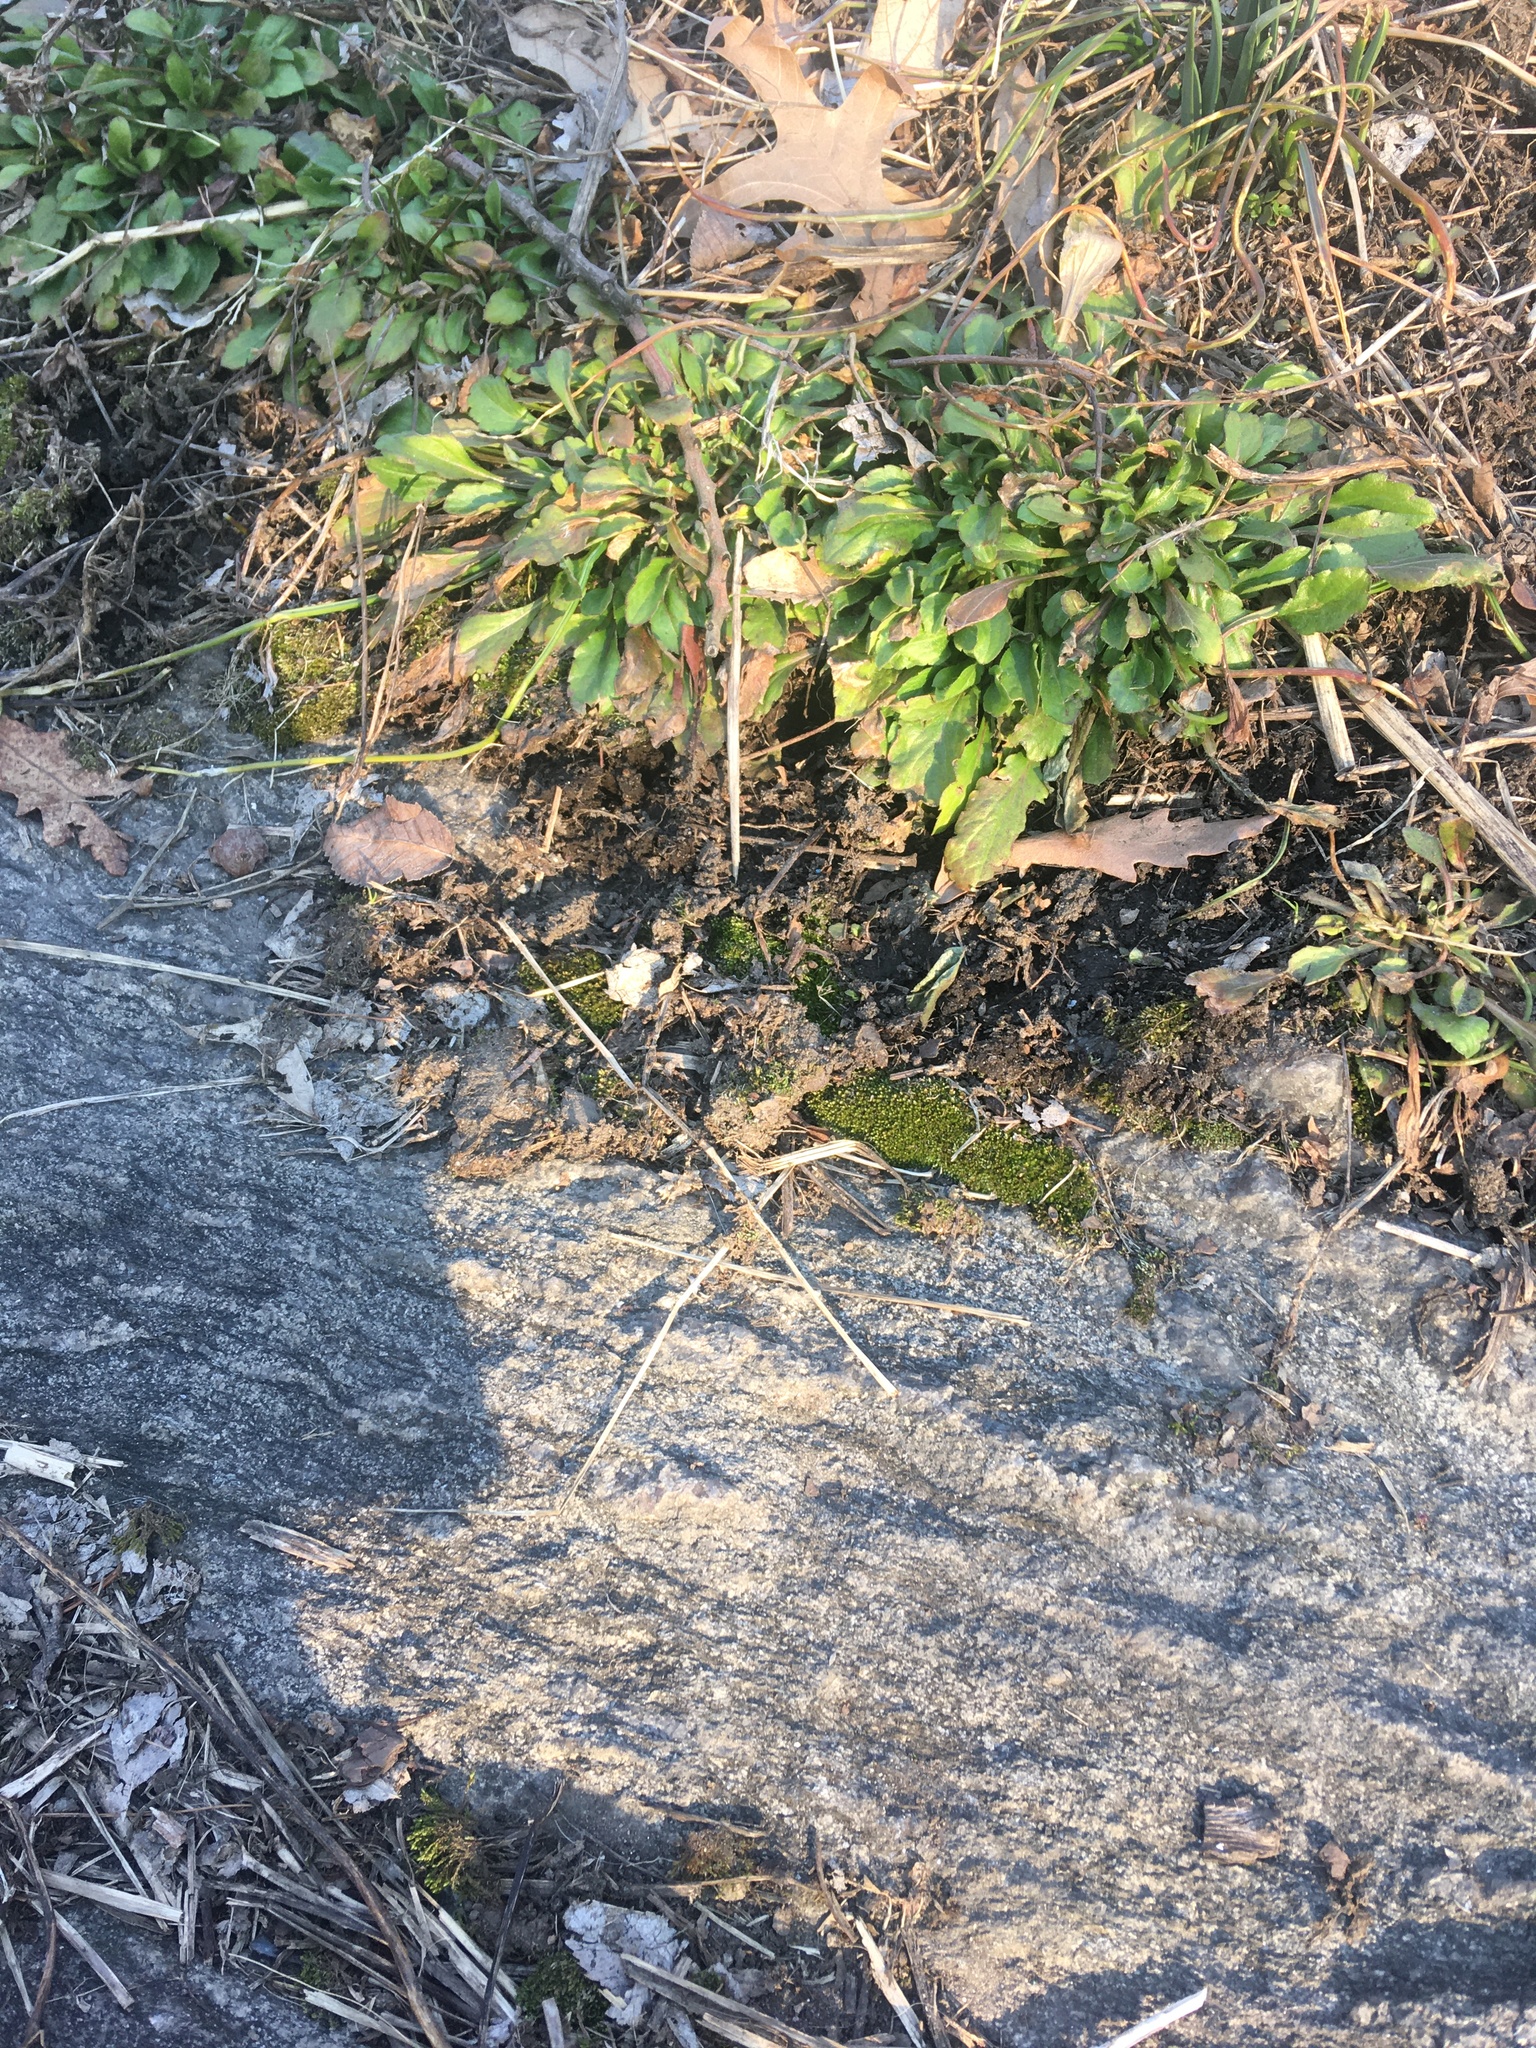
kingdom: Plantae
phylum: Bryophyta
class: Bryopsida
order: Hypnales
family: Entodontaceae
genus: Entodon
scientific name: Entodon seductrix
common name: Round-stemmed entodon moss
